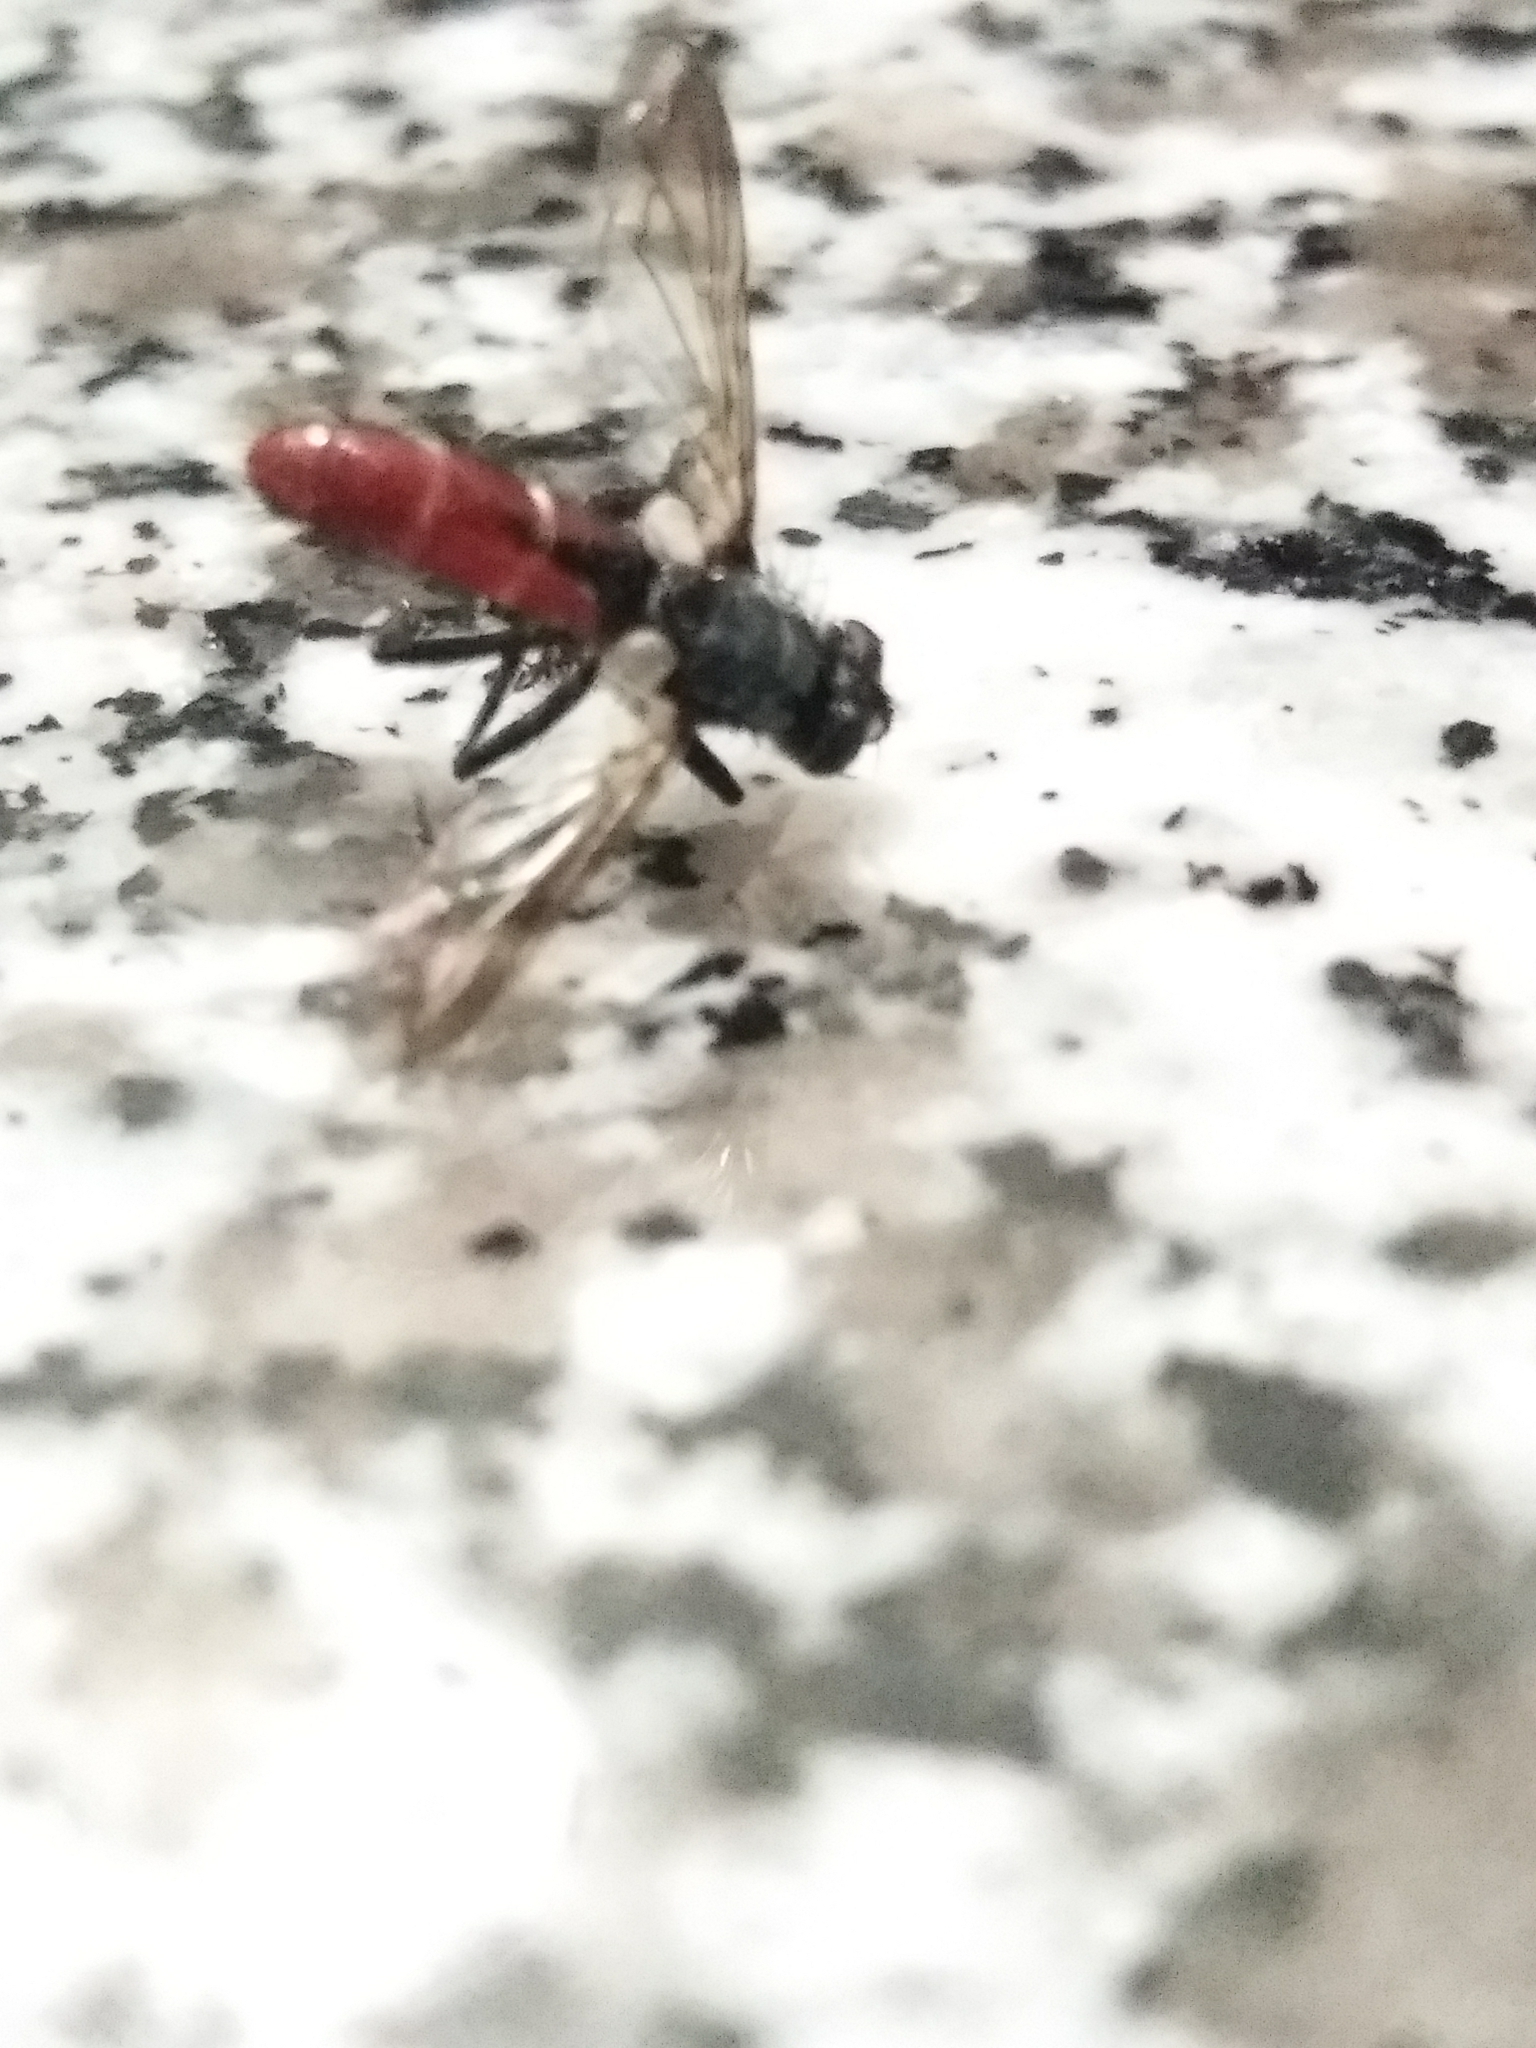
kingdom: Animalia
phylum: Arthropoda
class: Insecta
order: Diptera
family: Tachinidae
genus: Cylindromyia
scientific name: Cylindromyia bicolor
